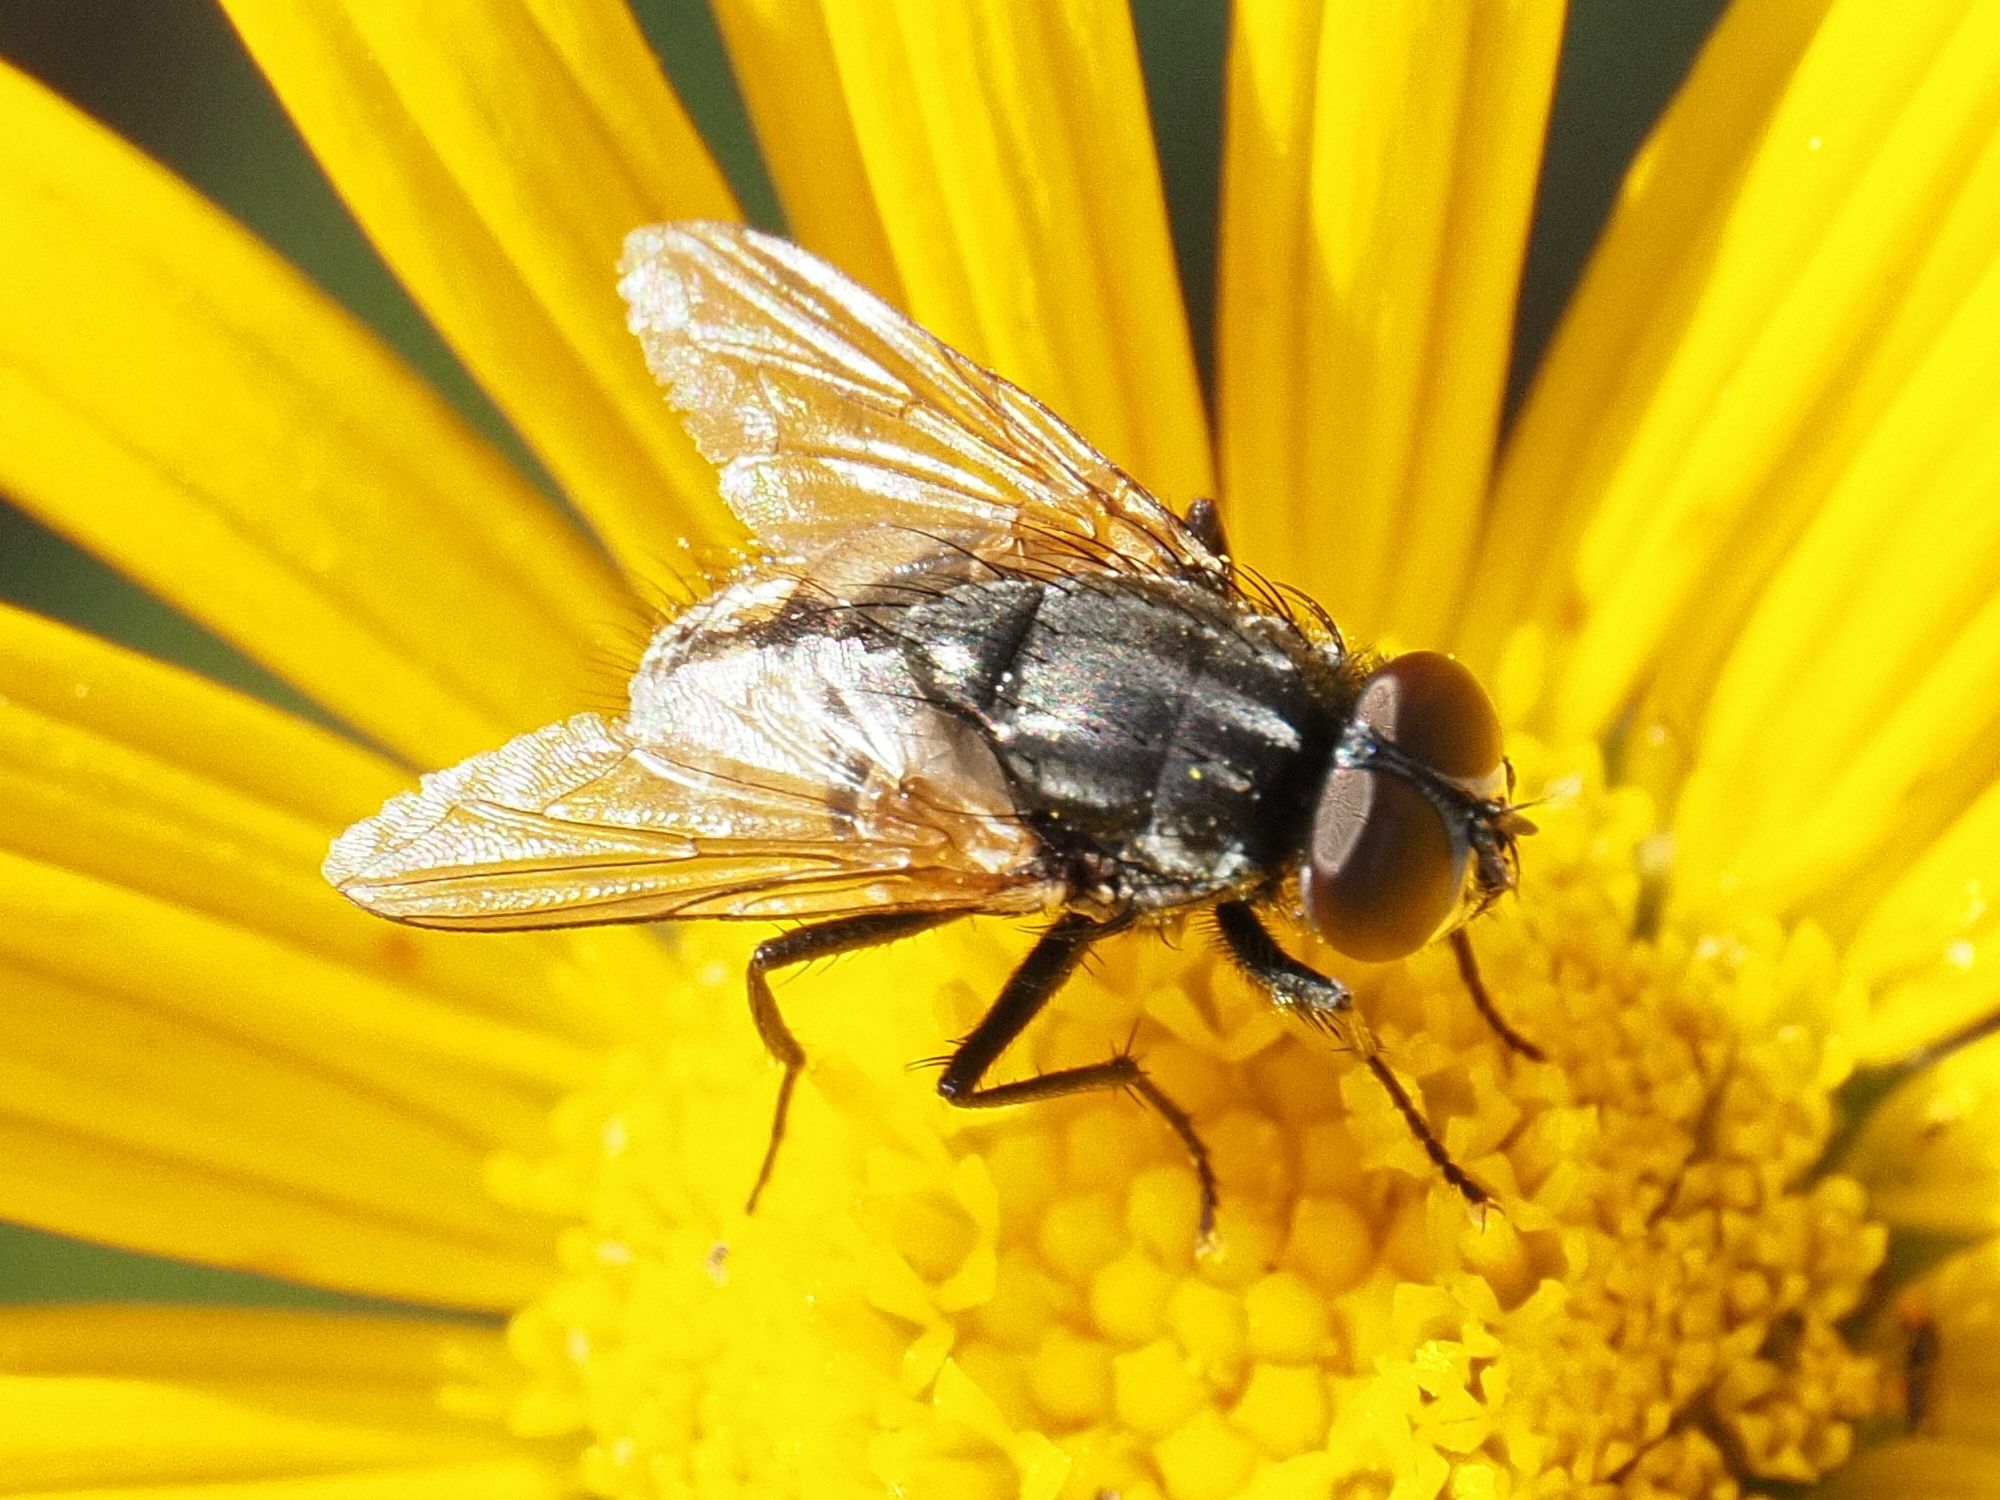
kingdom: Animalia
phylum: Arthropoda
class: Insecta
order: Diptera
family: Muscidae
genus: Musca
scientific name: Musca autumnalis
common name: Face fly
